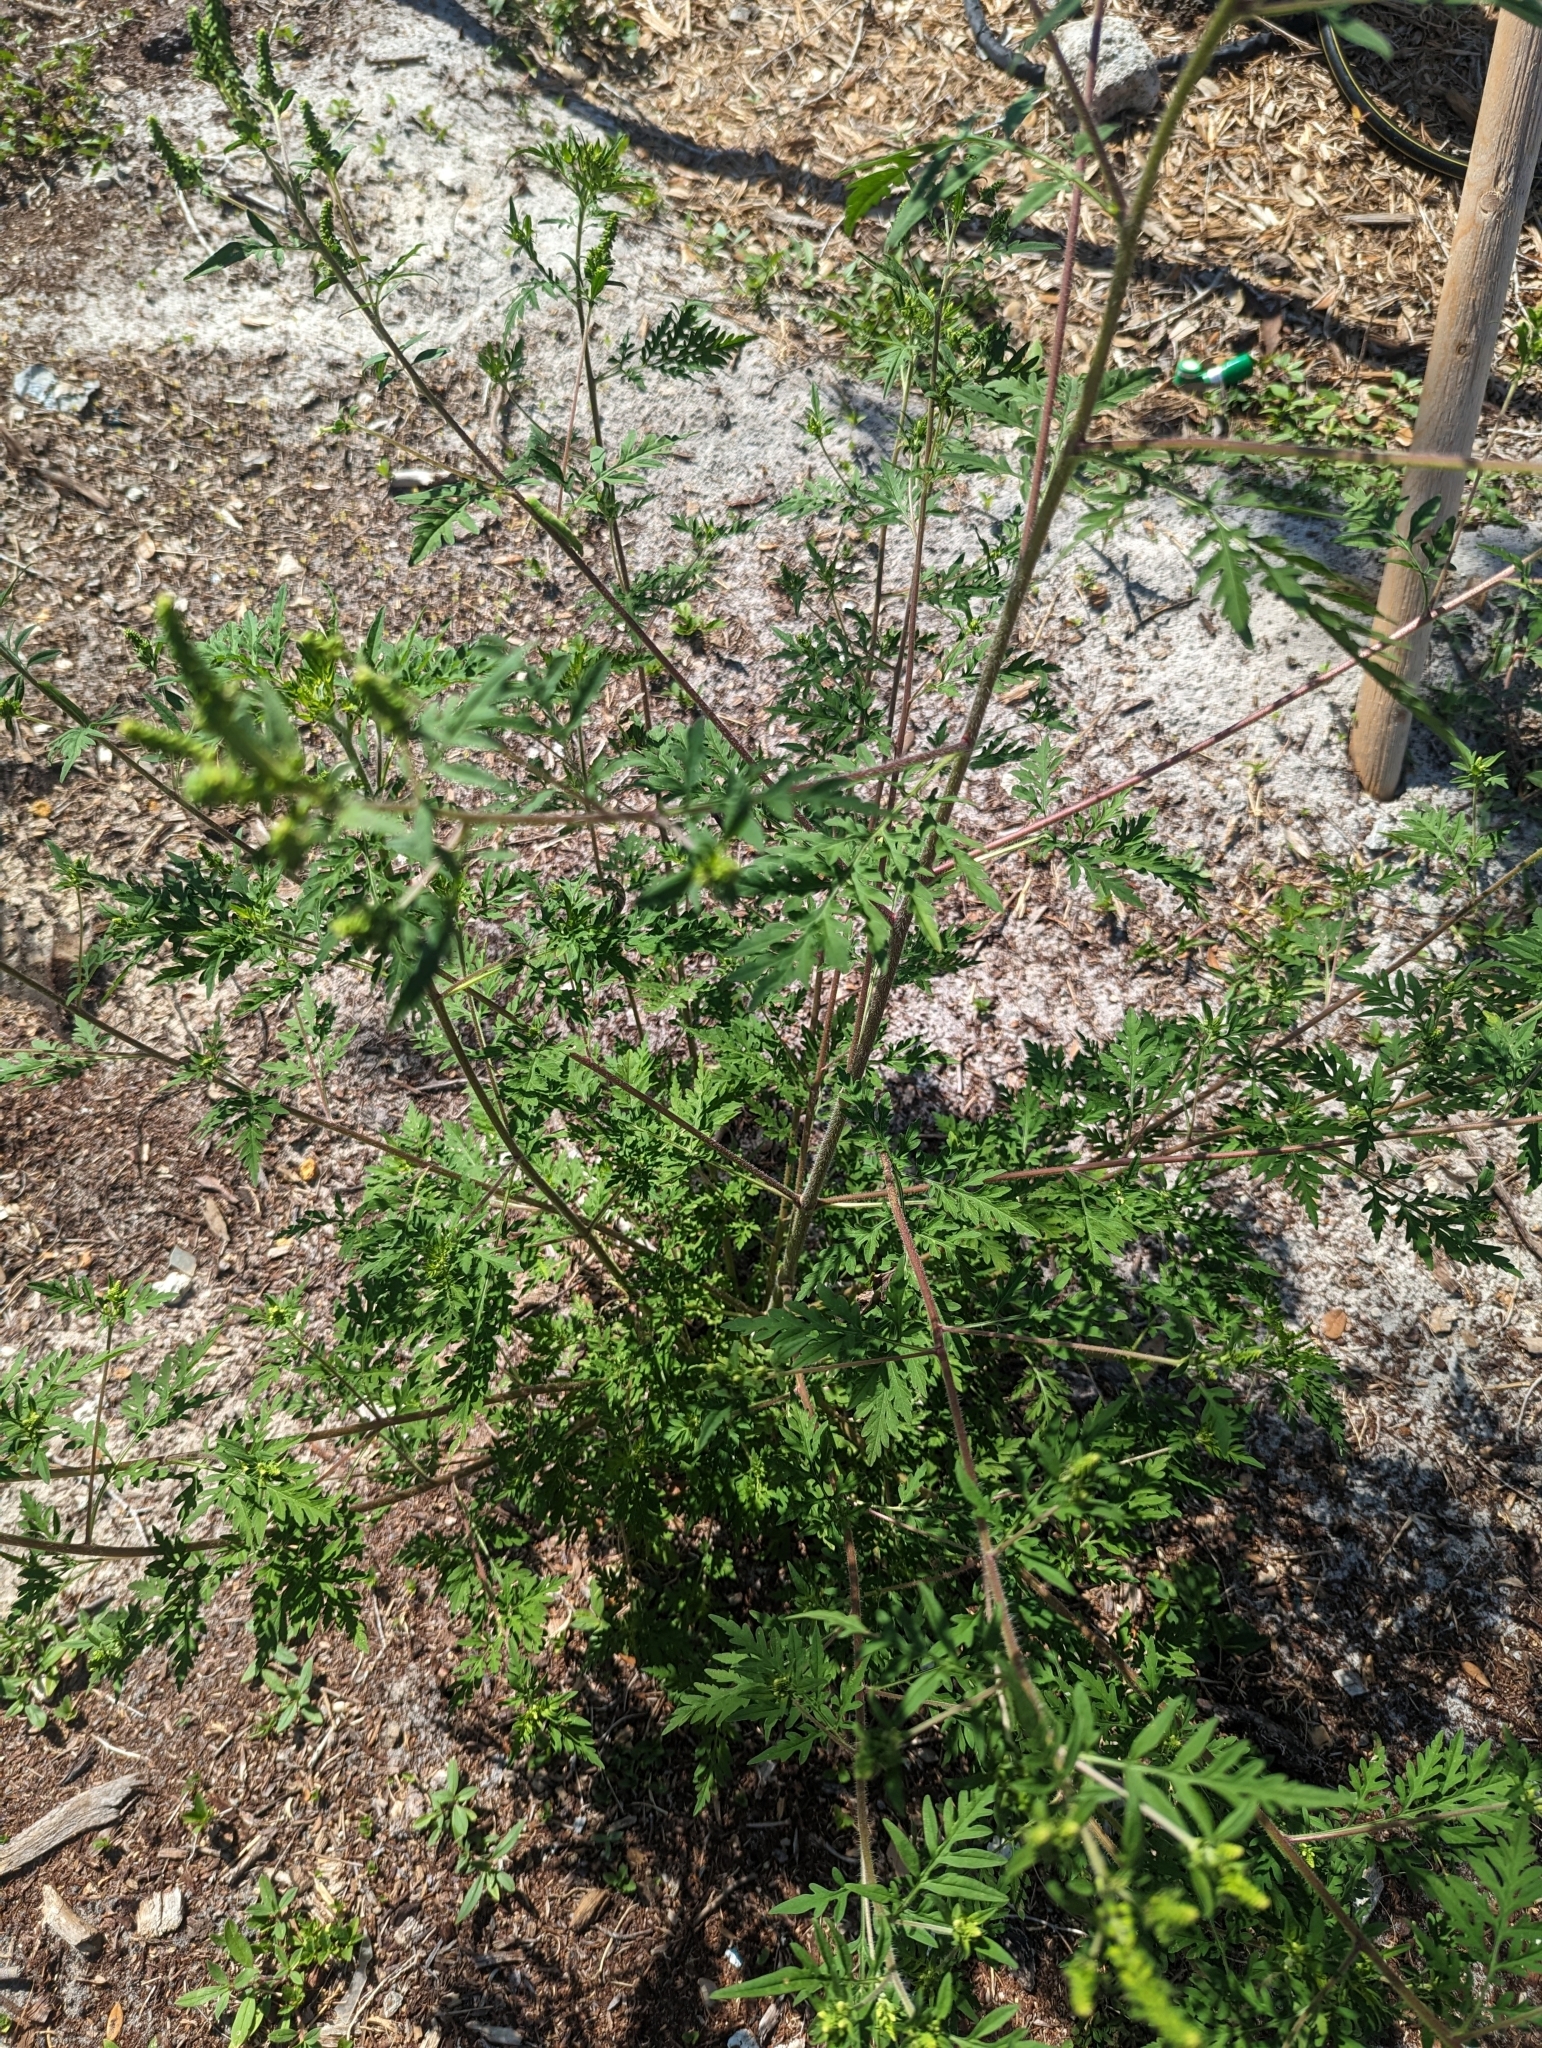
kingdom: Plantae
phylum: Tracheophyta
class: Magnoliopsida
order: Asterales
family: Asteraceae
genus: Ambrosia
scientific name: Ambrosia artemisiifolia
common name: Annual ragweed
